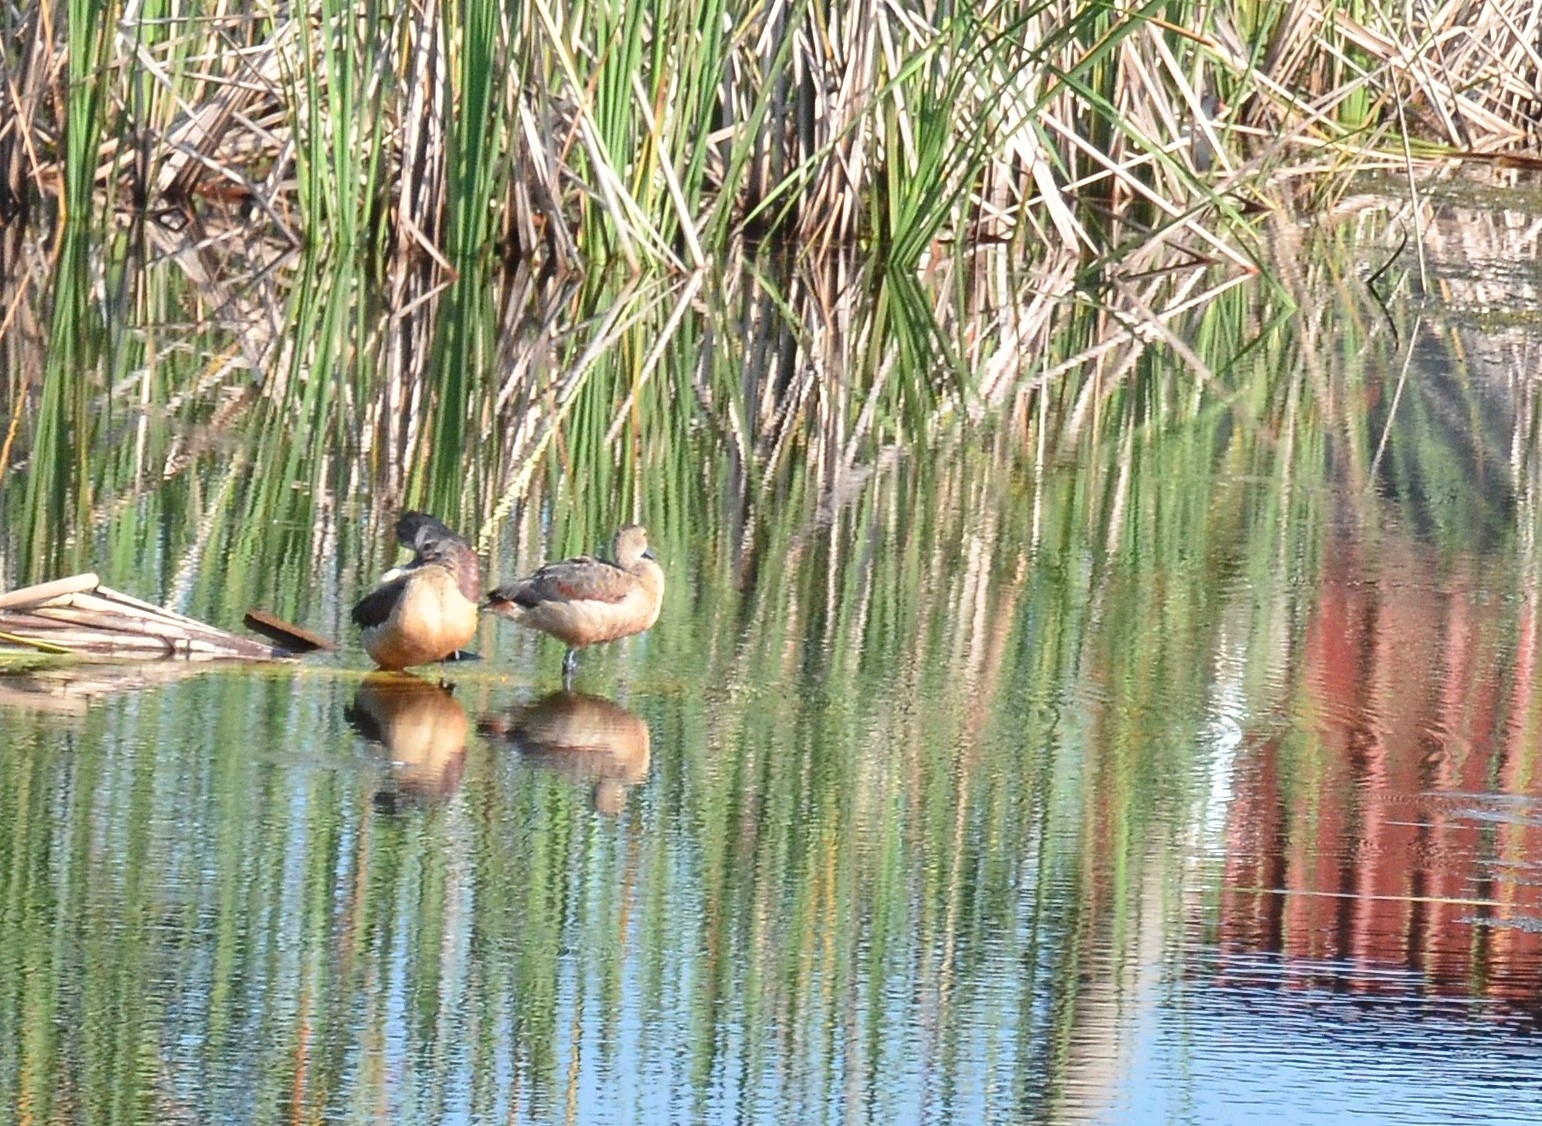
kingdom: Animalia
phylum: Chordata
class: Aves
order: Anseriformes
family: Anatidae
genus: Dendrocygna
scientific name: Dendrocygna javanica
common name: Lesser whistling-duck
